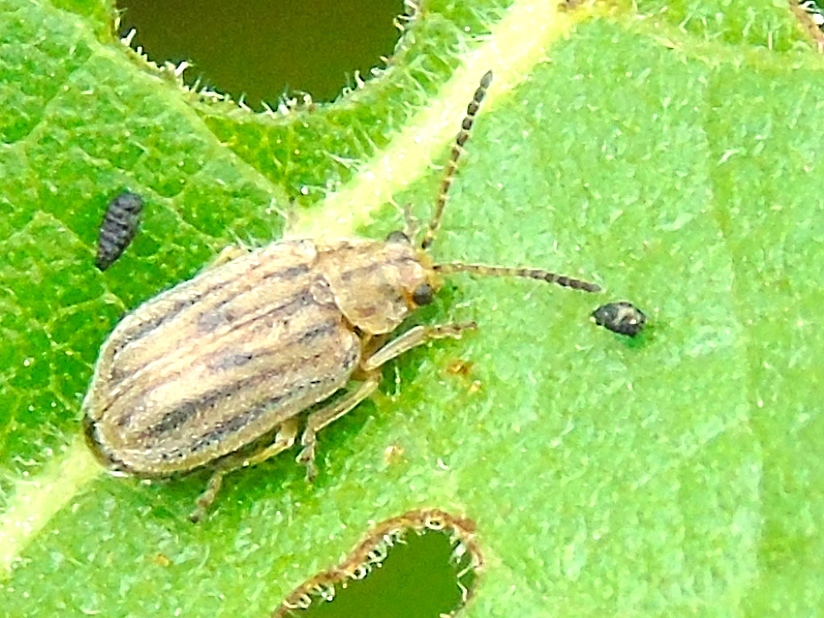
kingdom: Animalia
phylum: Arthropoda
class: Insecta
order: Coleoptera
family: Chrysomelidae
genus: Ophraella
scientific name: Ophraella
